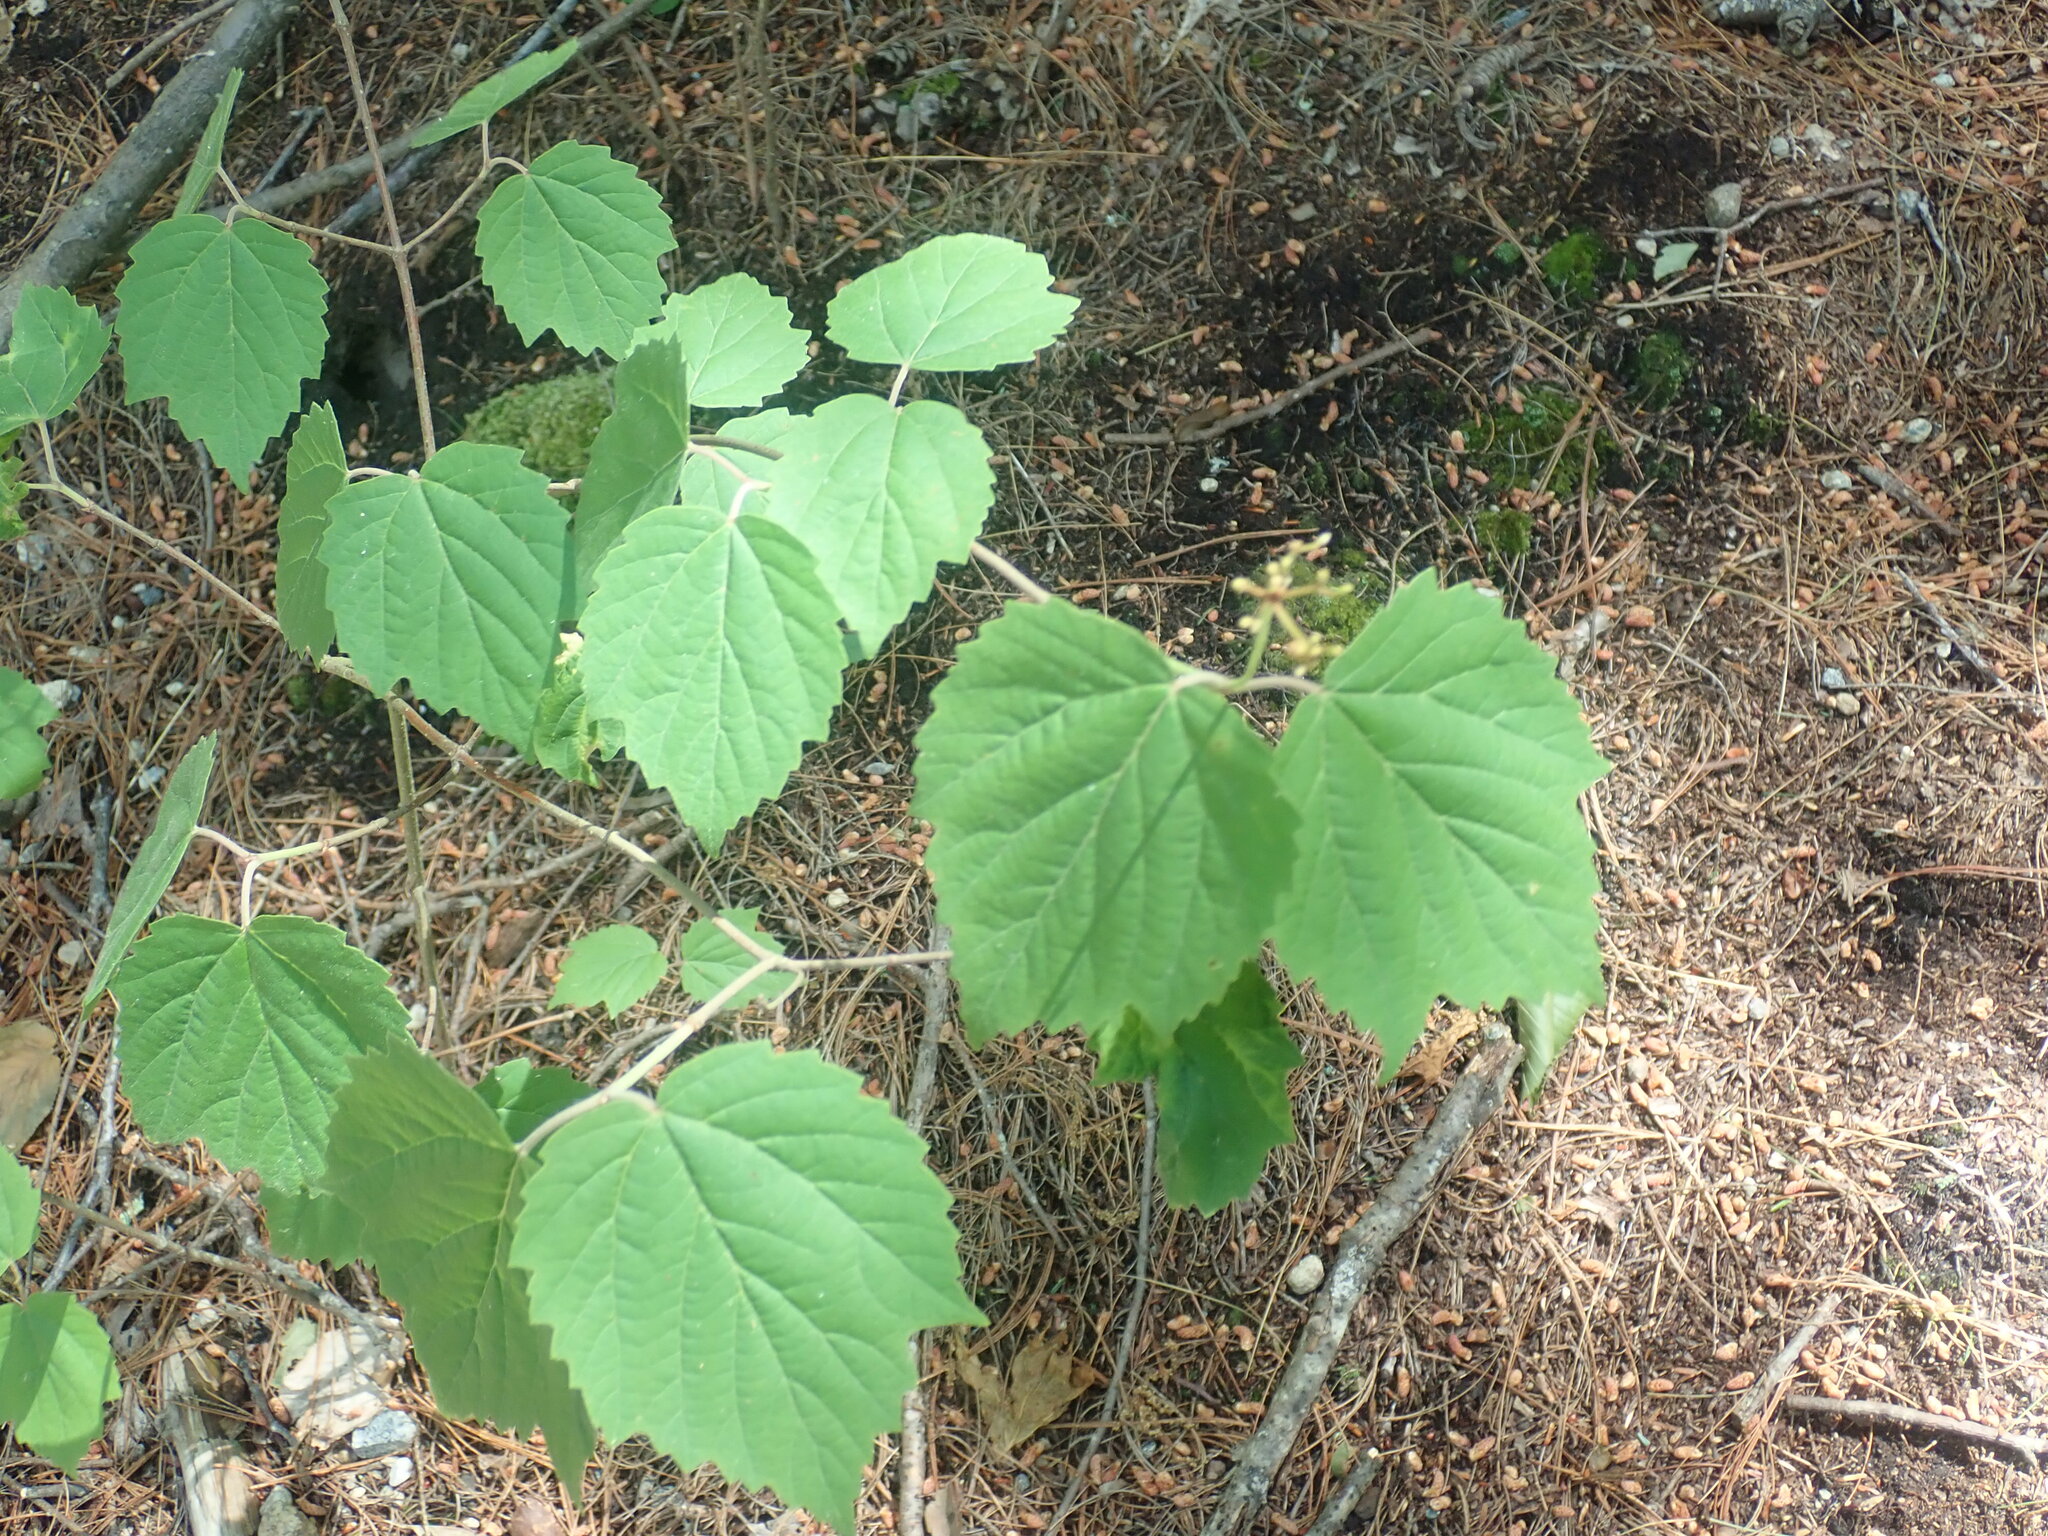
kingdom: Plantae
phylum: Tracheophyta
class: Magnoliopsida
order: Dipsacales
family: Viburnaceae
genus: Viburnum
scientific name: Viburnum acerifolium
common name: Dockmackie
